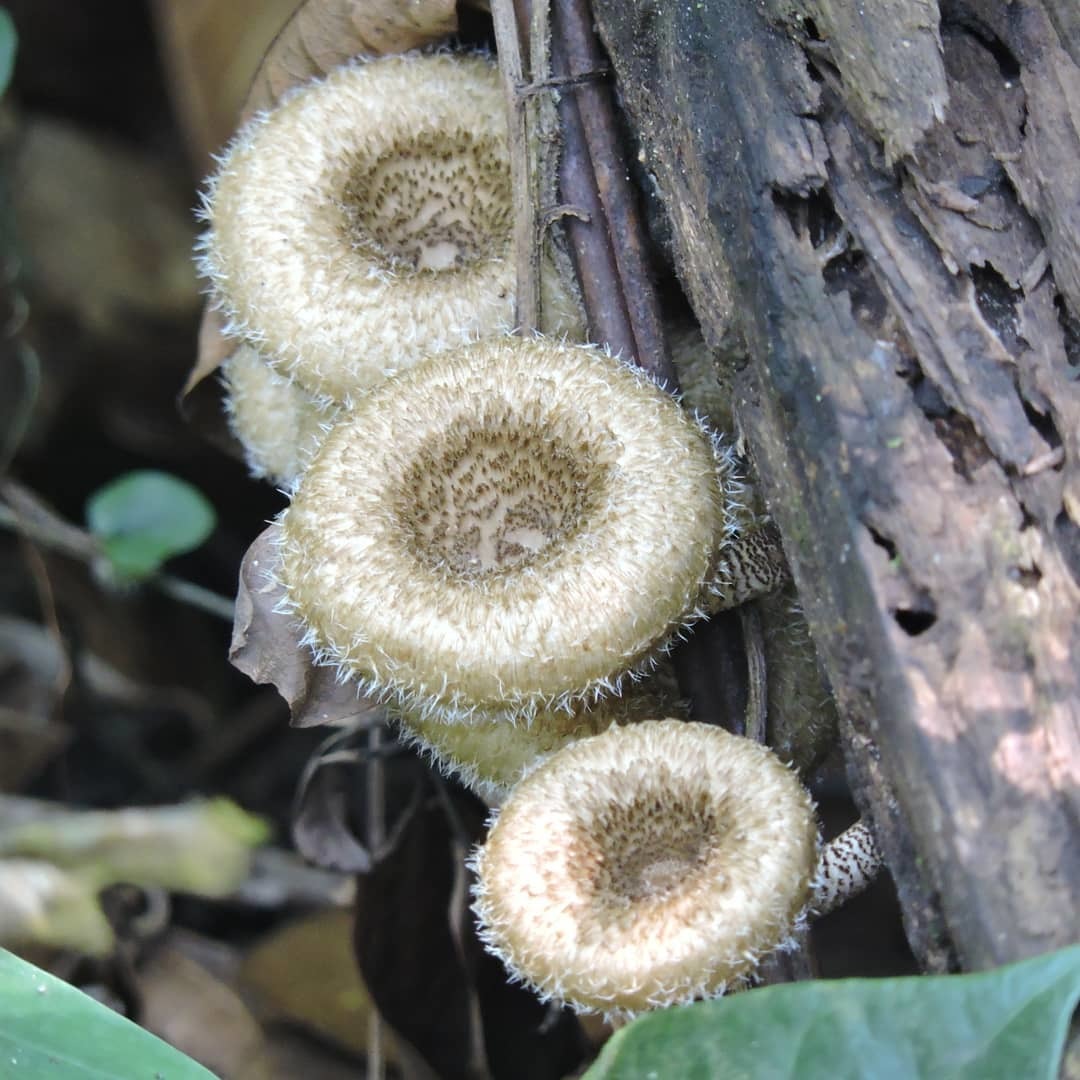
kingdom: Fungi
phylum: Basidiomycota
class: Agaricomycetes
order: Polyporales
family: Polyporaceae
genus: Lentinus
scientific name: Lentinus crinitus
